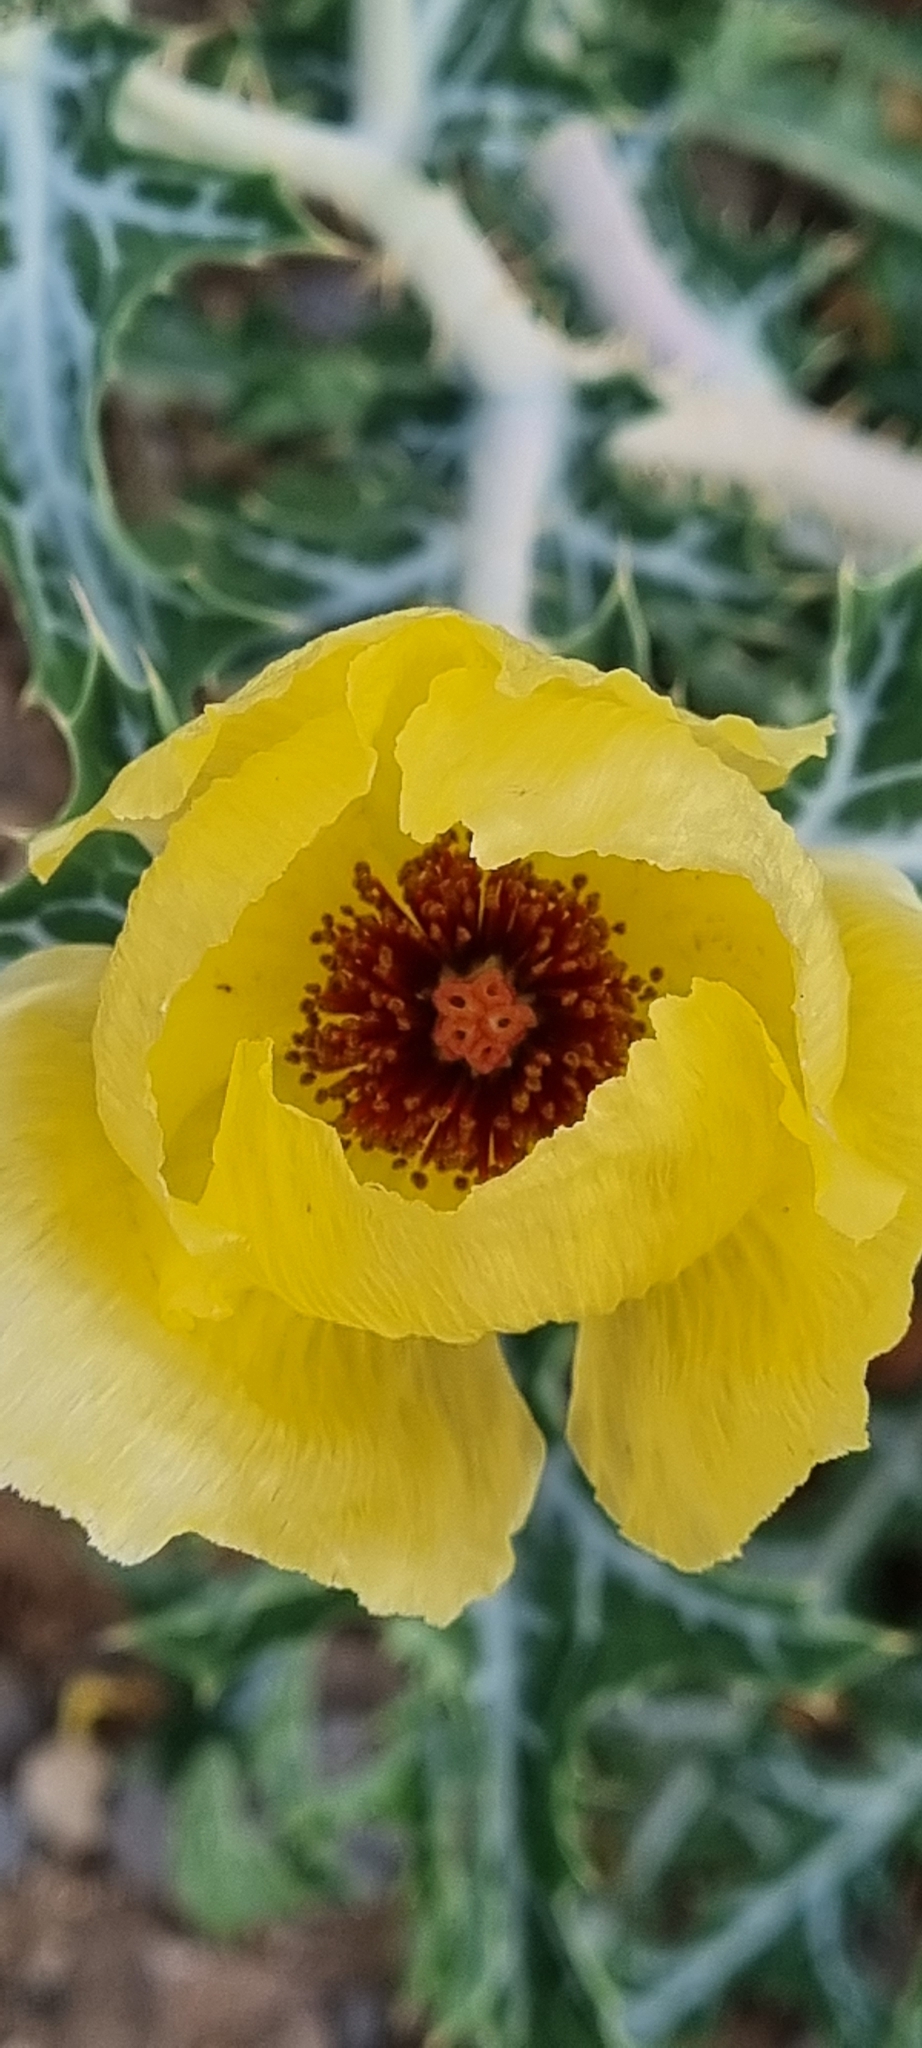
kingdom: Plantae
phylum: Tracheophyta
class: Magnoliopsida
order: Ranunculales
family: Papaveraceae
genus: Argemone
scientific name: Argemone aenea
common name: Golden prickly-poppy
